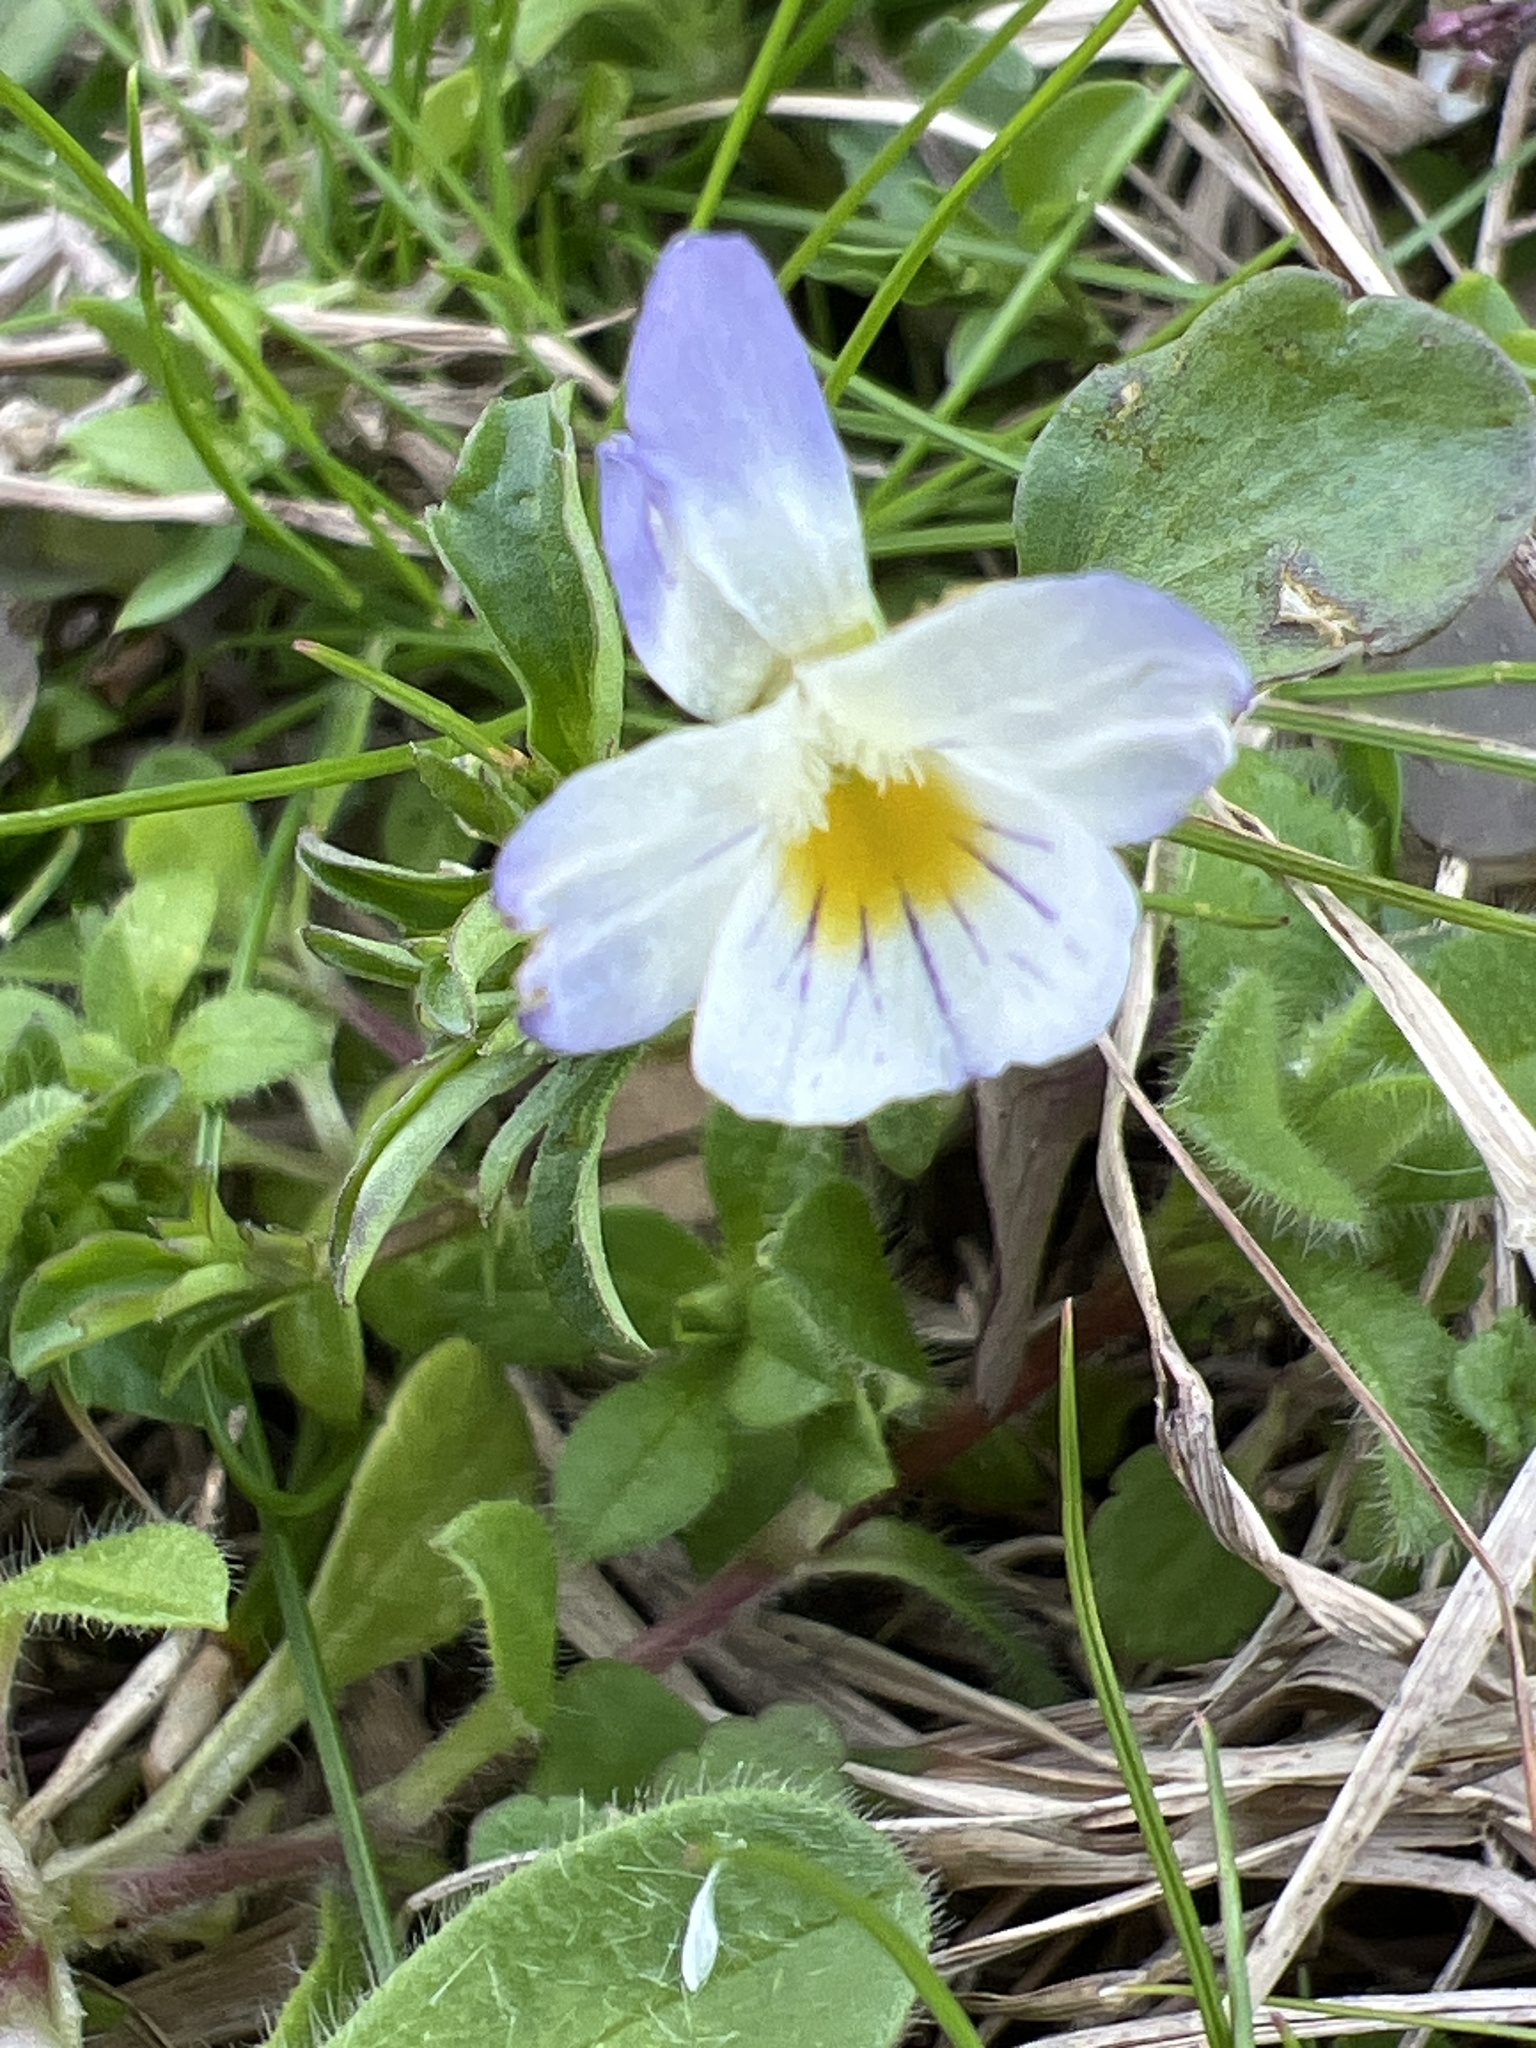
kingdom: Plantae
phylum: Tracheophyta
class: Magnoliopsida
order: Malpighiales
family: Violaceae
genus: Viola
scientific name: Viola rafinesquei
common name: American field pansy
